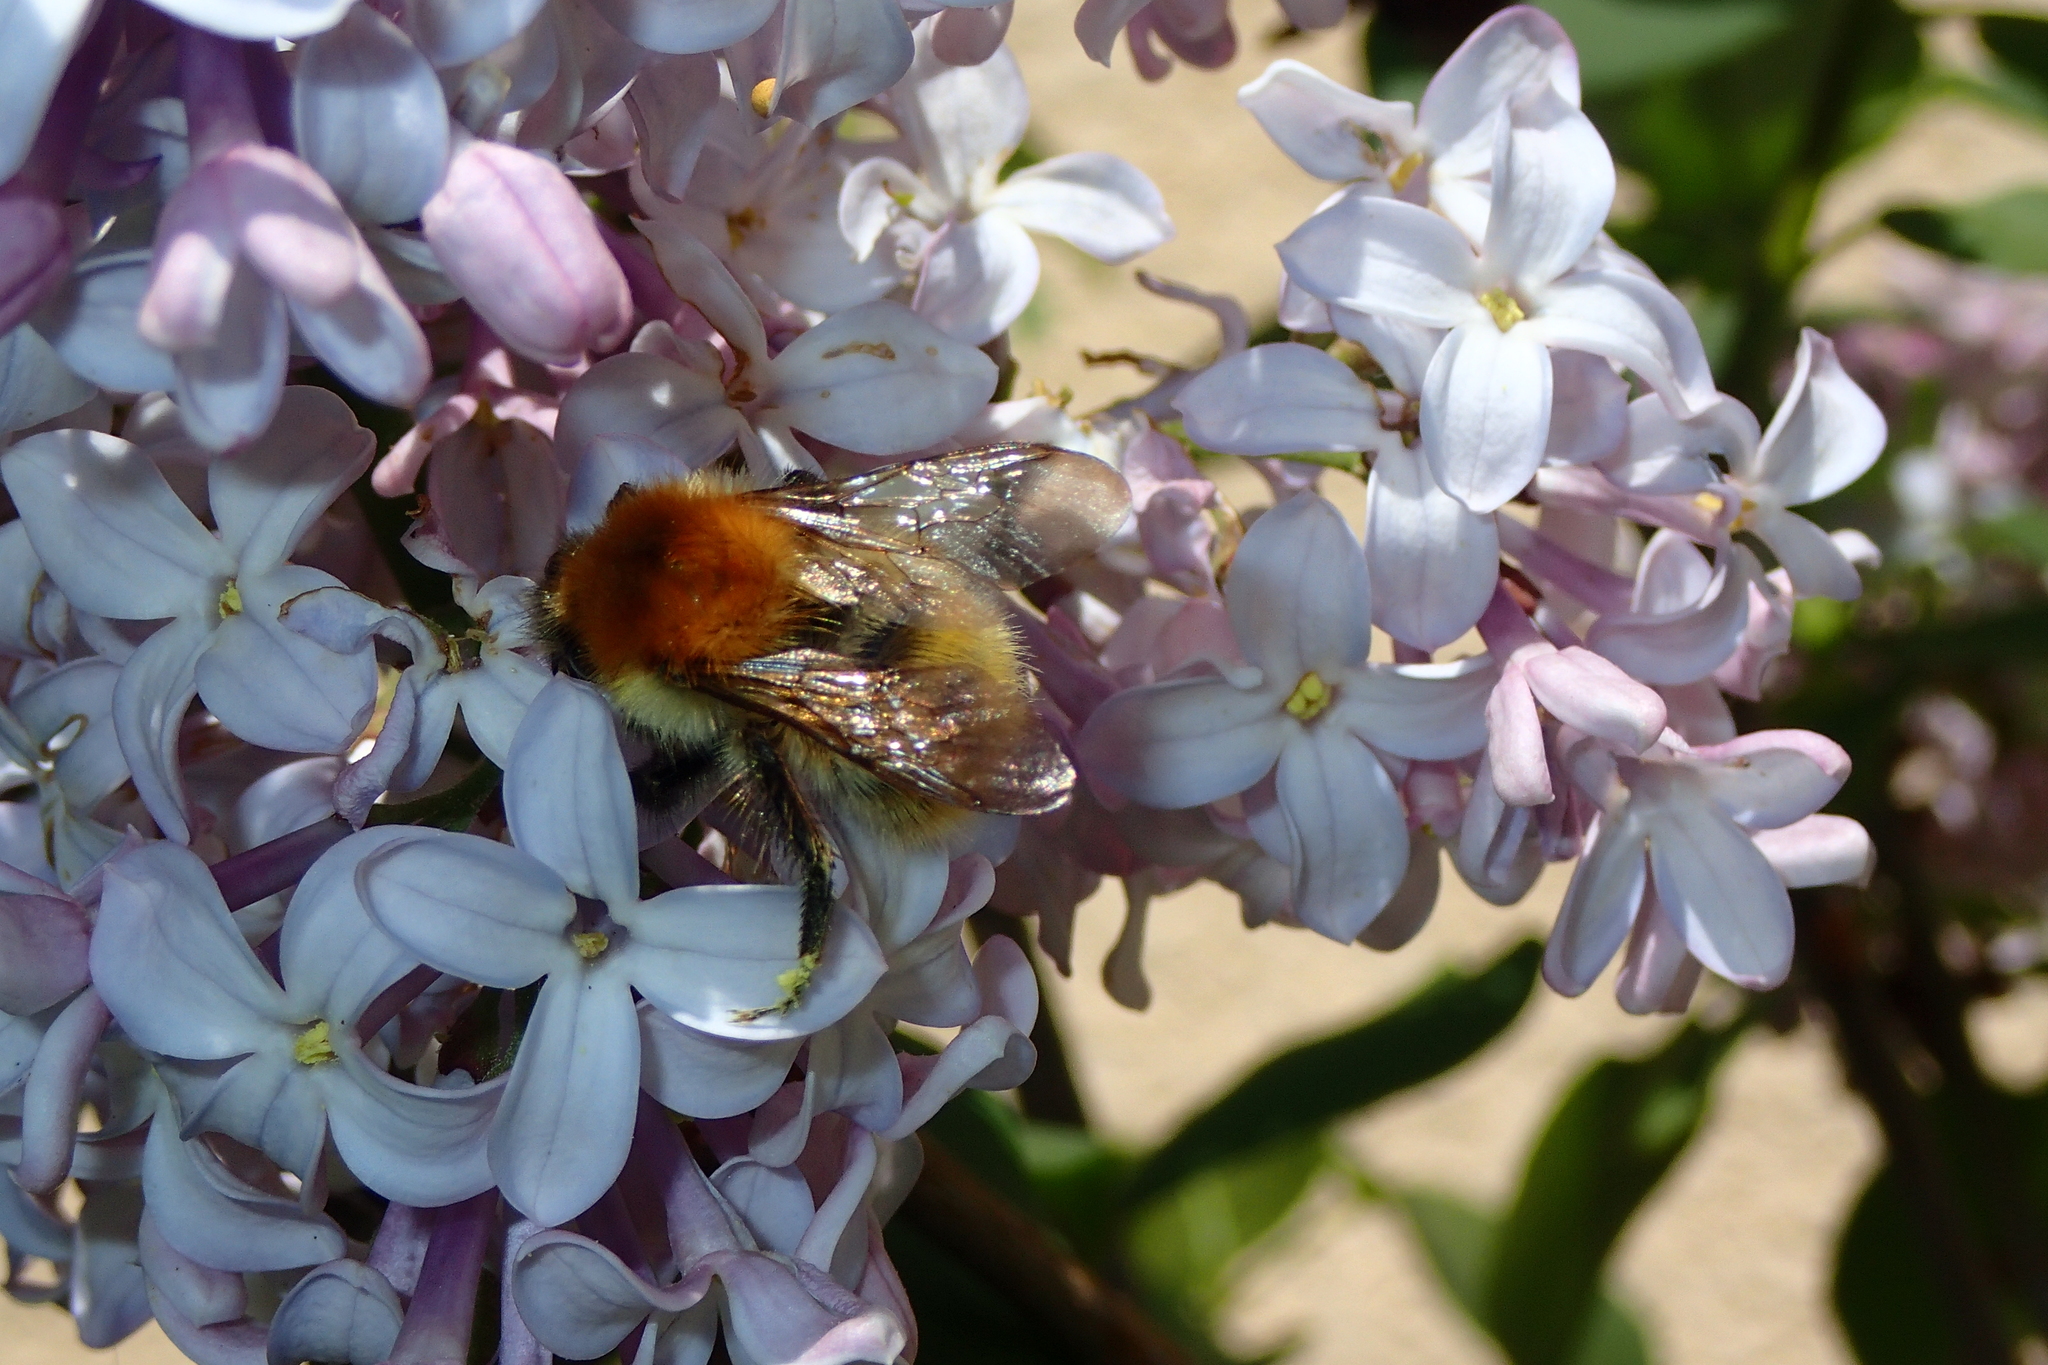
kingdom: Animalia
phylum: Arthropoda
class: Insecta
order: Hymenoptera
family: Apidae
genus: Bombus
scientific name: Bombus pascuorum
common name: Common carder bee
